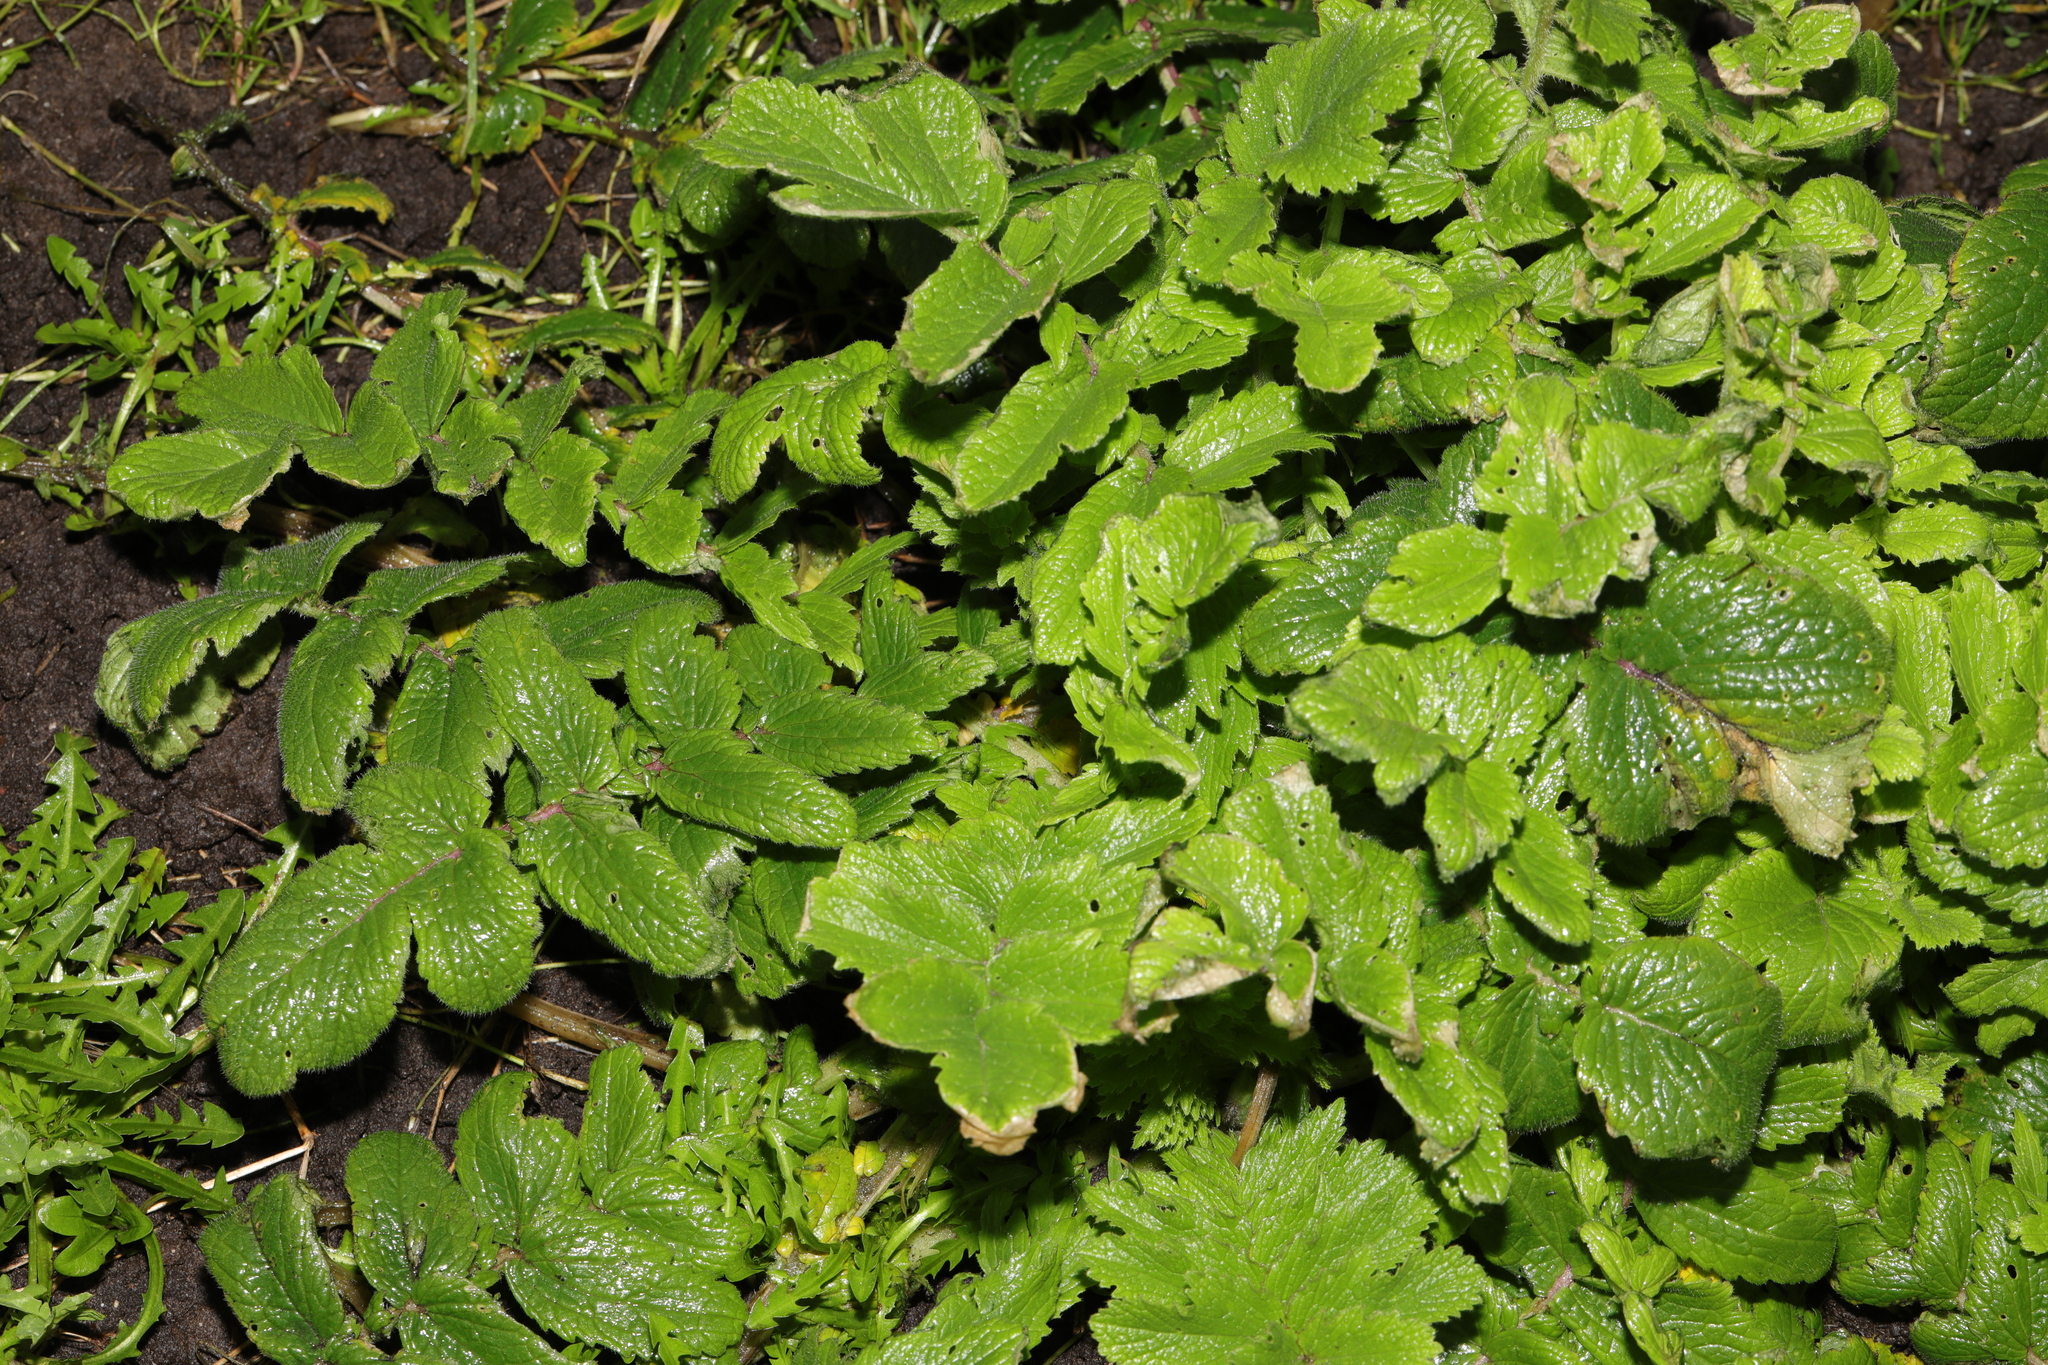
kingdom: Plantae
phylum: Tracheophyta
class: Magnoliopsida
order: Brassicales
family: Brassicaceae
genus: Raphanus
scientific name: Raphanus raphanistrum
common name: Wild radish
